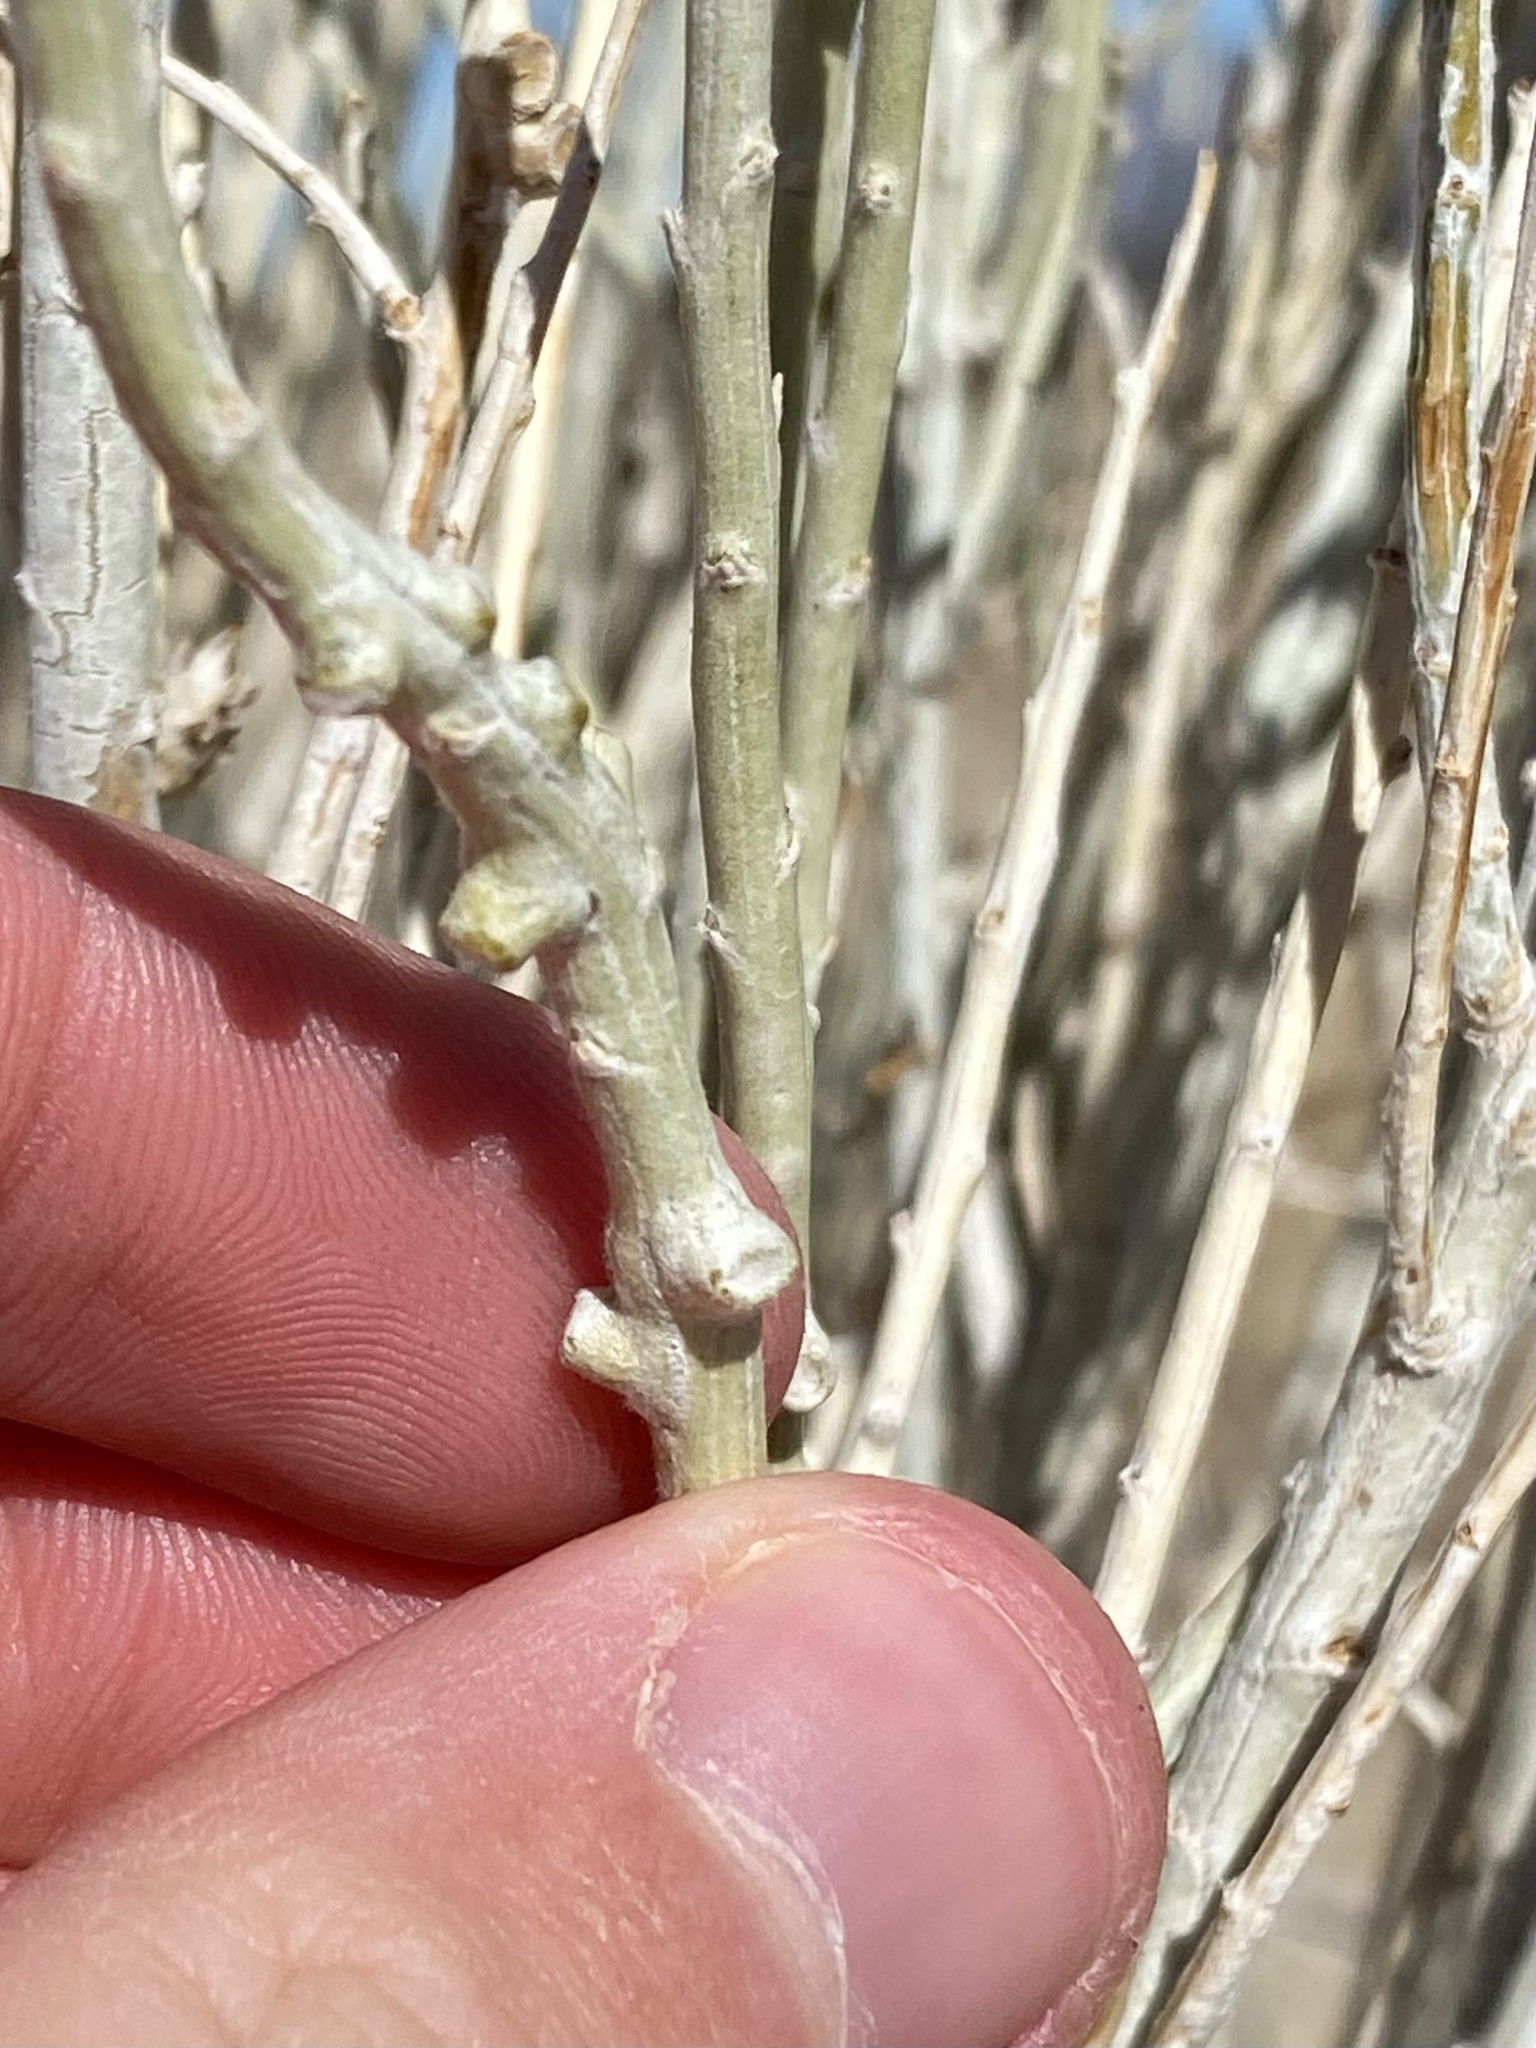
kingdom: Animalia
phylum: Arthropoda
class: Insecta
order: Diptera
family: Cecidomyiidae
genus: Rhopalomyia
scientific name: Rhopalomyia chrysothamni
